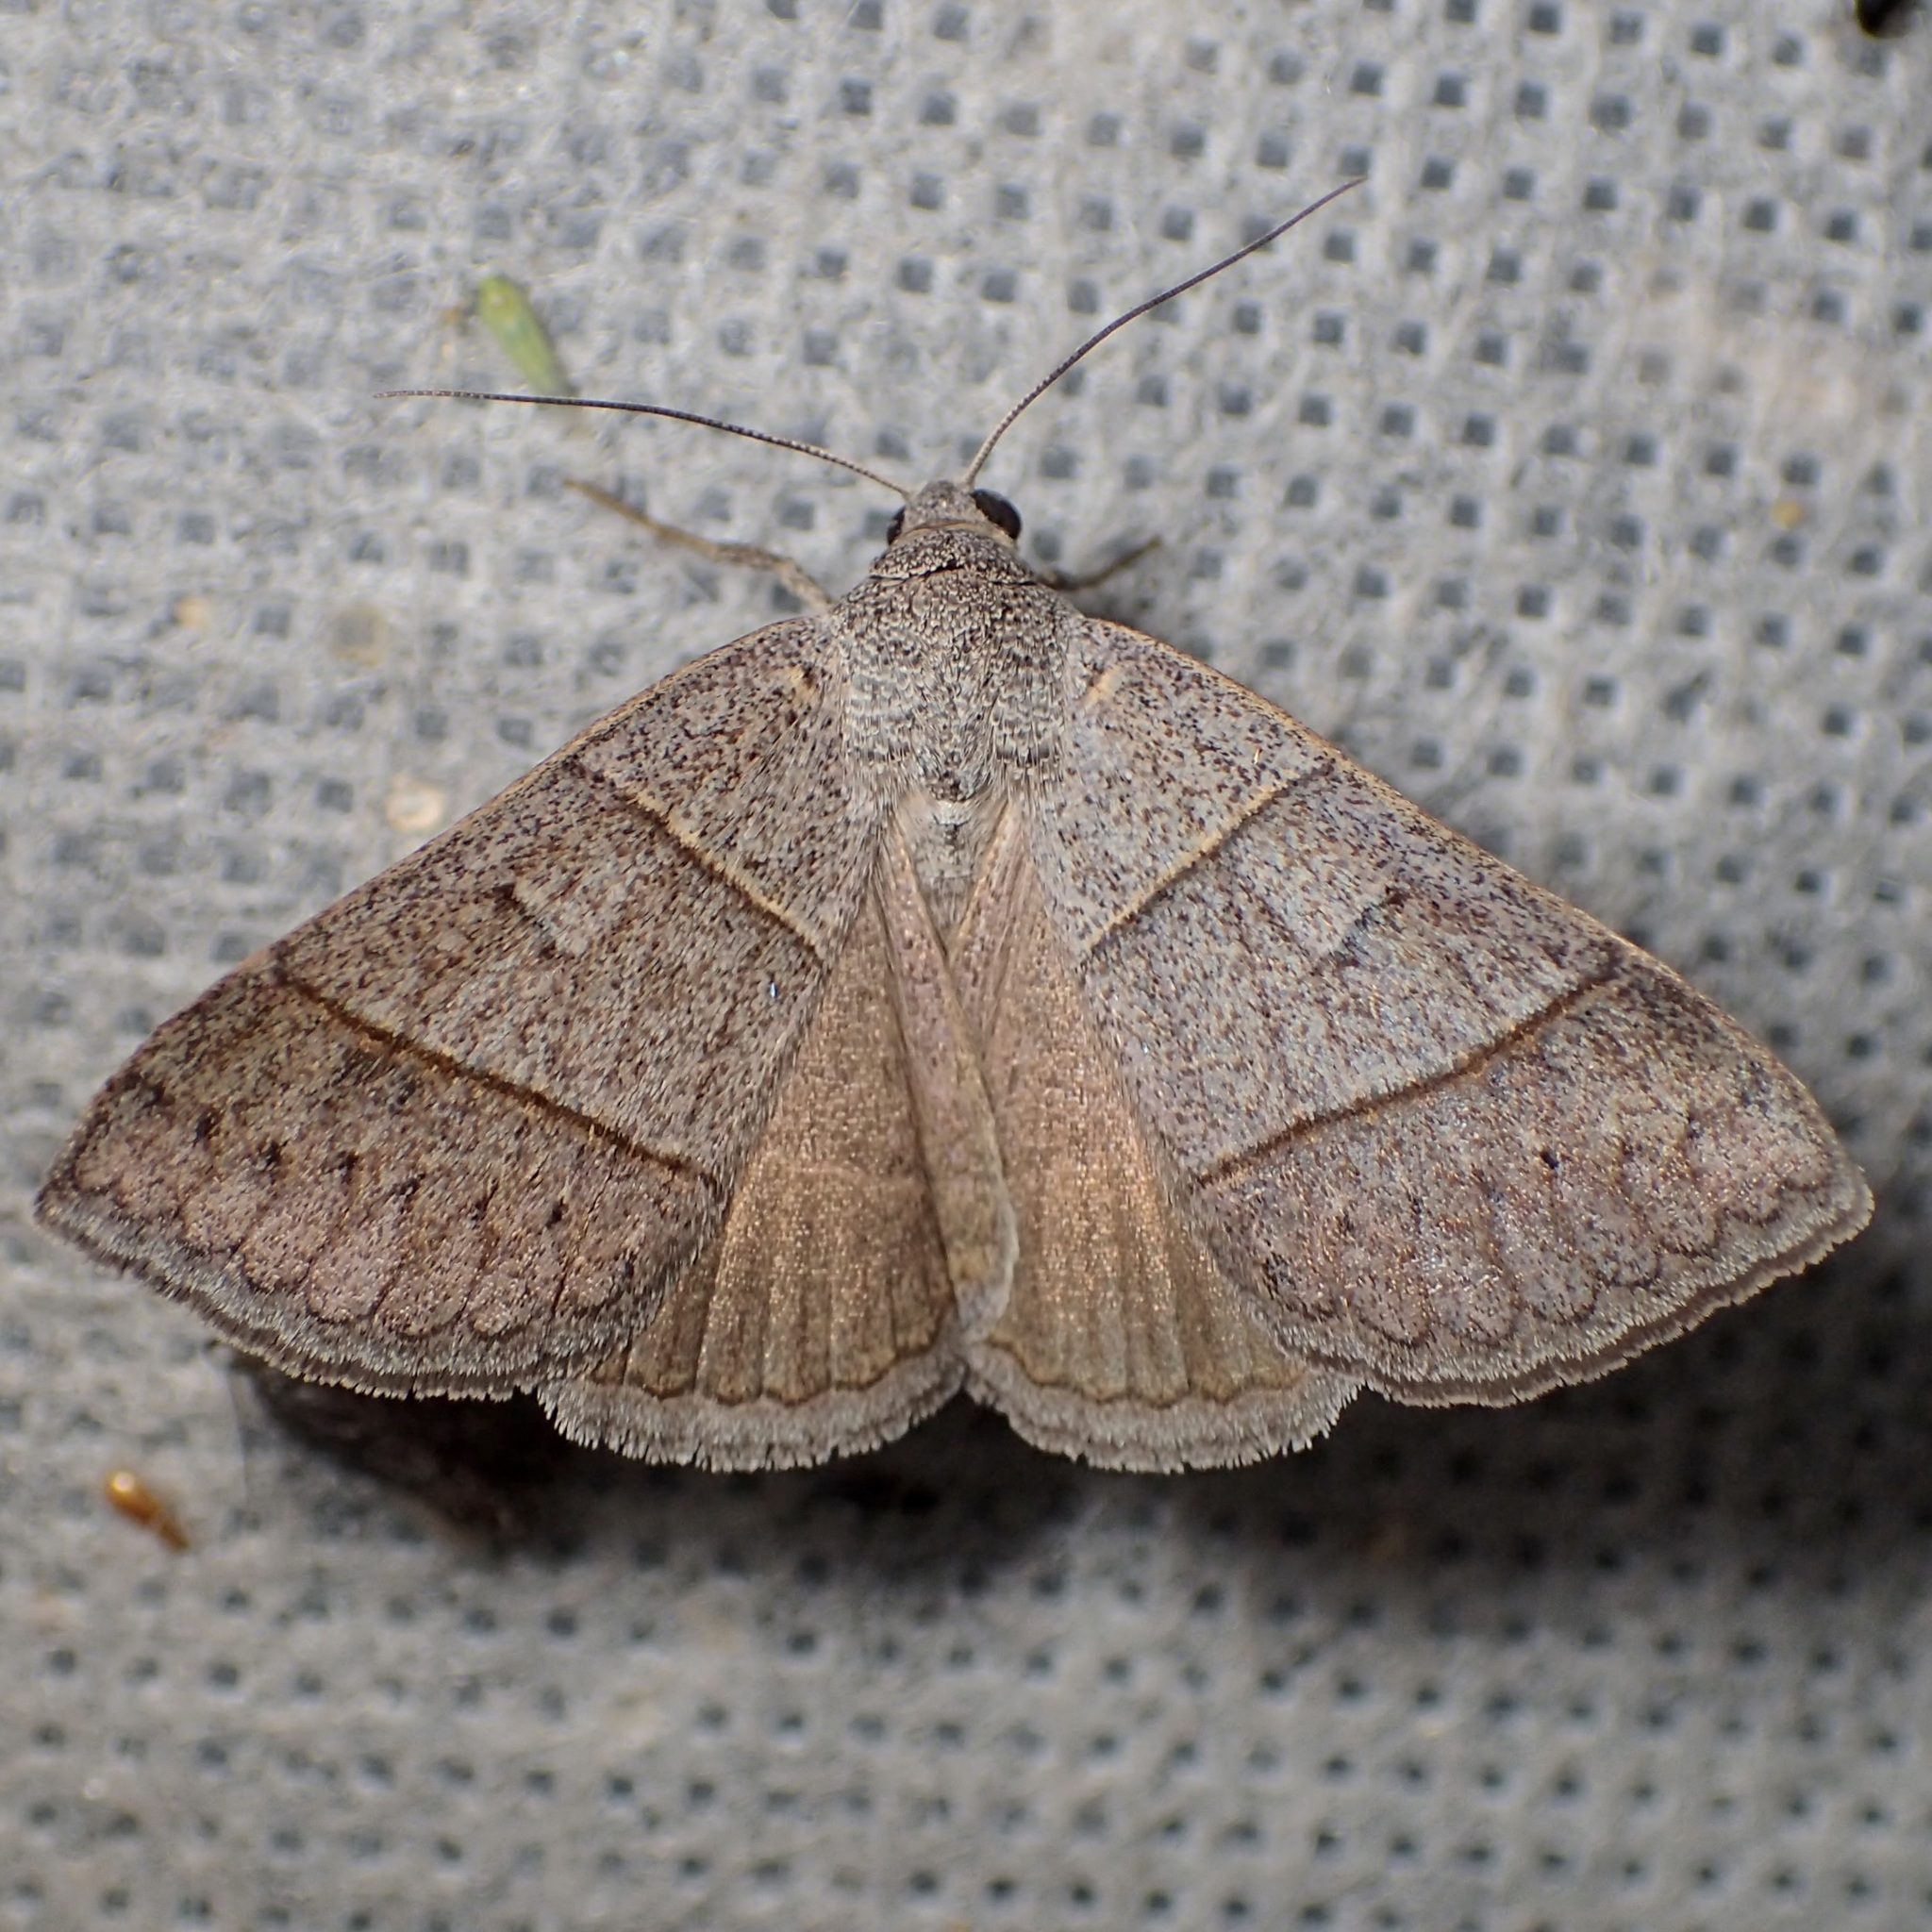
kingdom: Animalia
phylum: Arthropoda
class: Insecta
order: Lepidoptera
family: Erebidae
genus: Ptichodis
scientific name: Ptichodis ovalis
